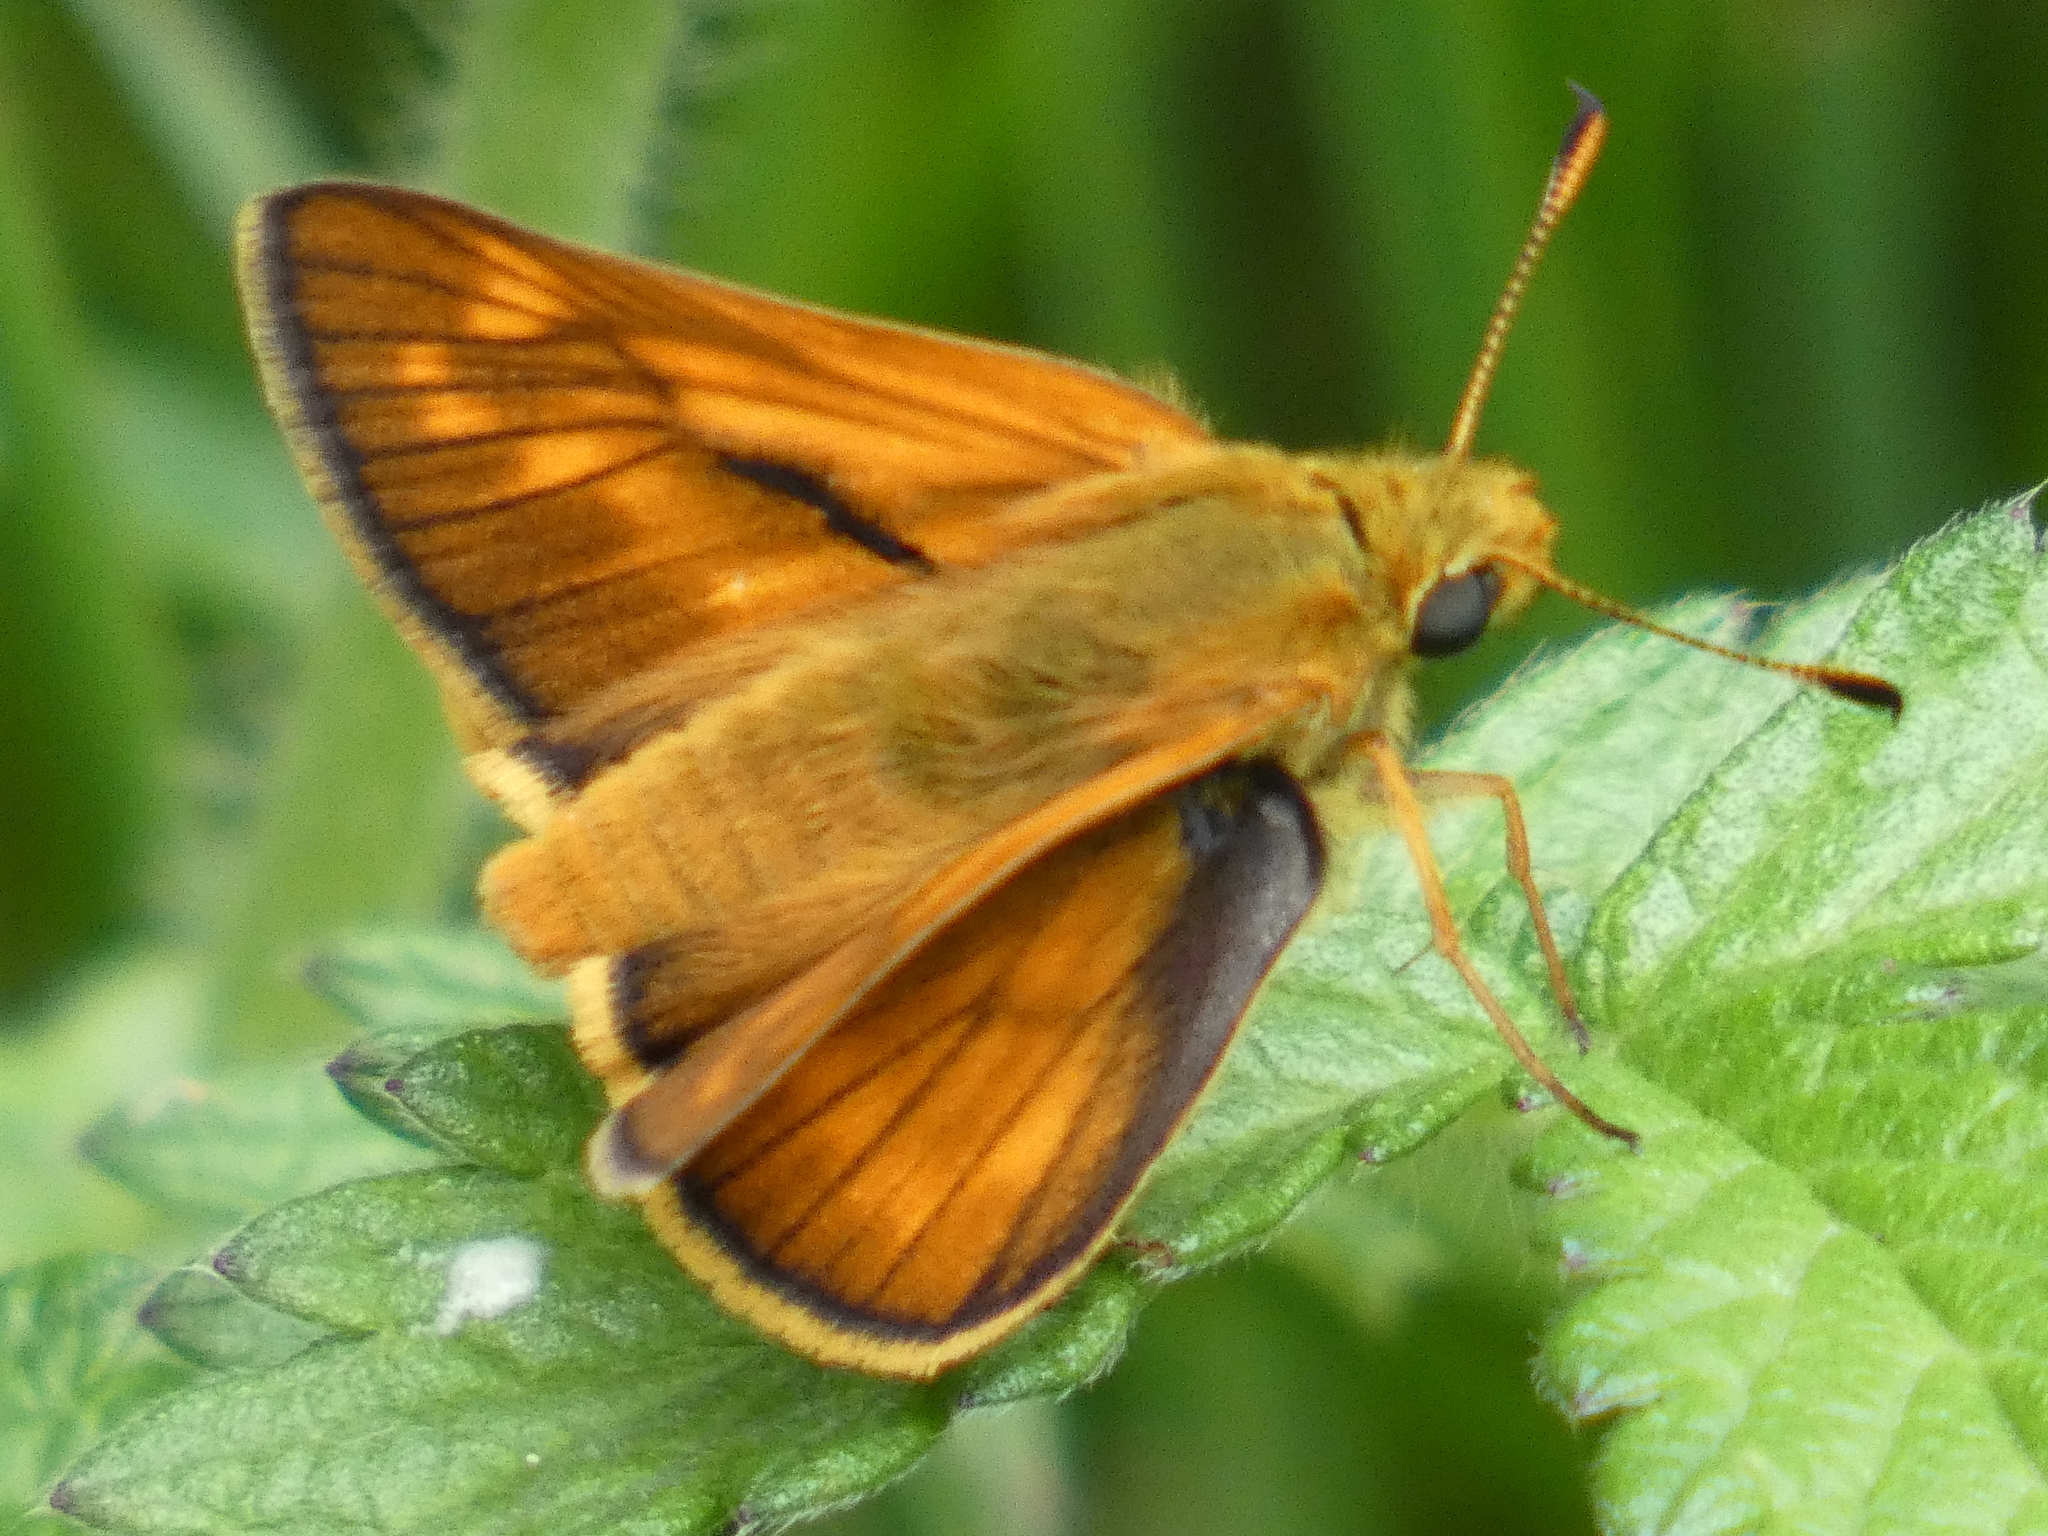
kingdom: Animalia
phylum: Arthropoda
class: Insecta
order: Lepidoptera
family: Hesperiidae
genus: Ochlodes
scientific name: Ochlodes venata
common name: Large skipper
